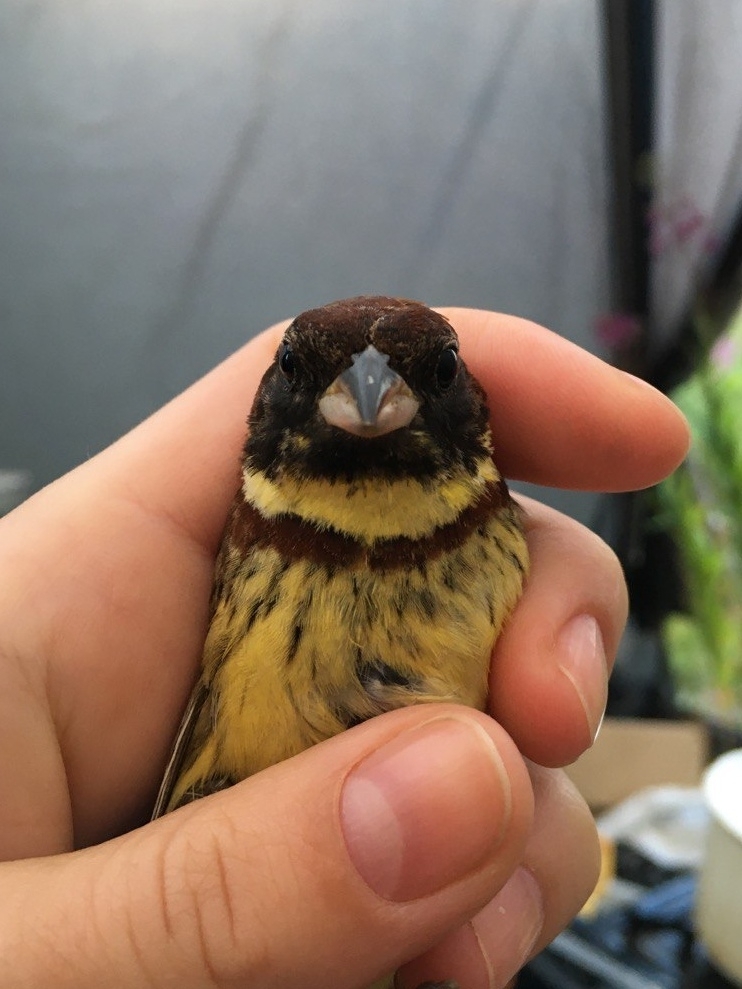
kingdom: Animalia
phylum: Chordata
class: Aves
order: Passeriformes
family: Emberizidae
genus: Emberiza
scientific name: Emberiza aureola
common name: Yellow-breasted bunting
